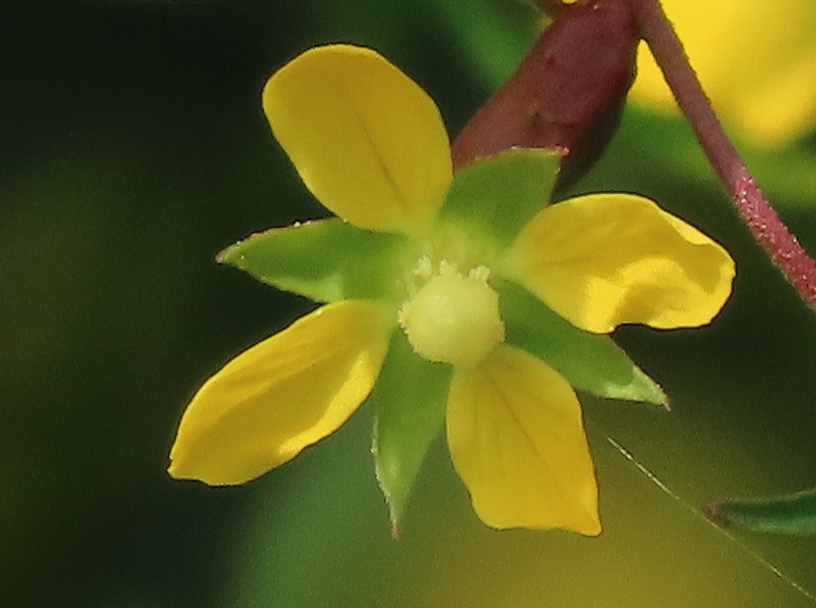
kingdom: Plantae
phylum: Tracheophyta
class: Magnoliopsida
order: Myrtales
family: Onagraceae
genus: Ludwigia
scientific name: Ludwigia erecta
